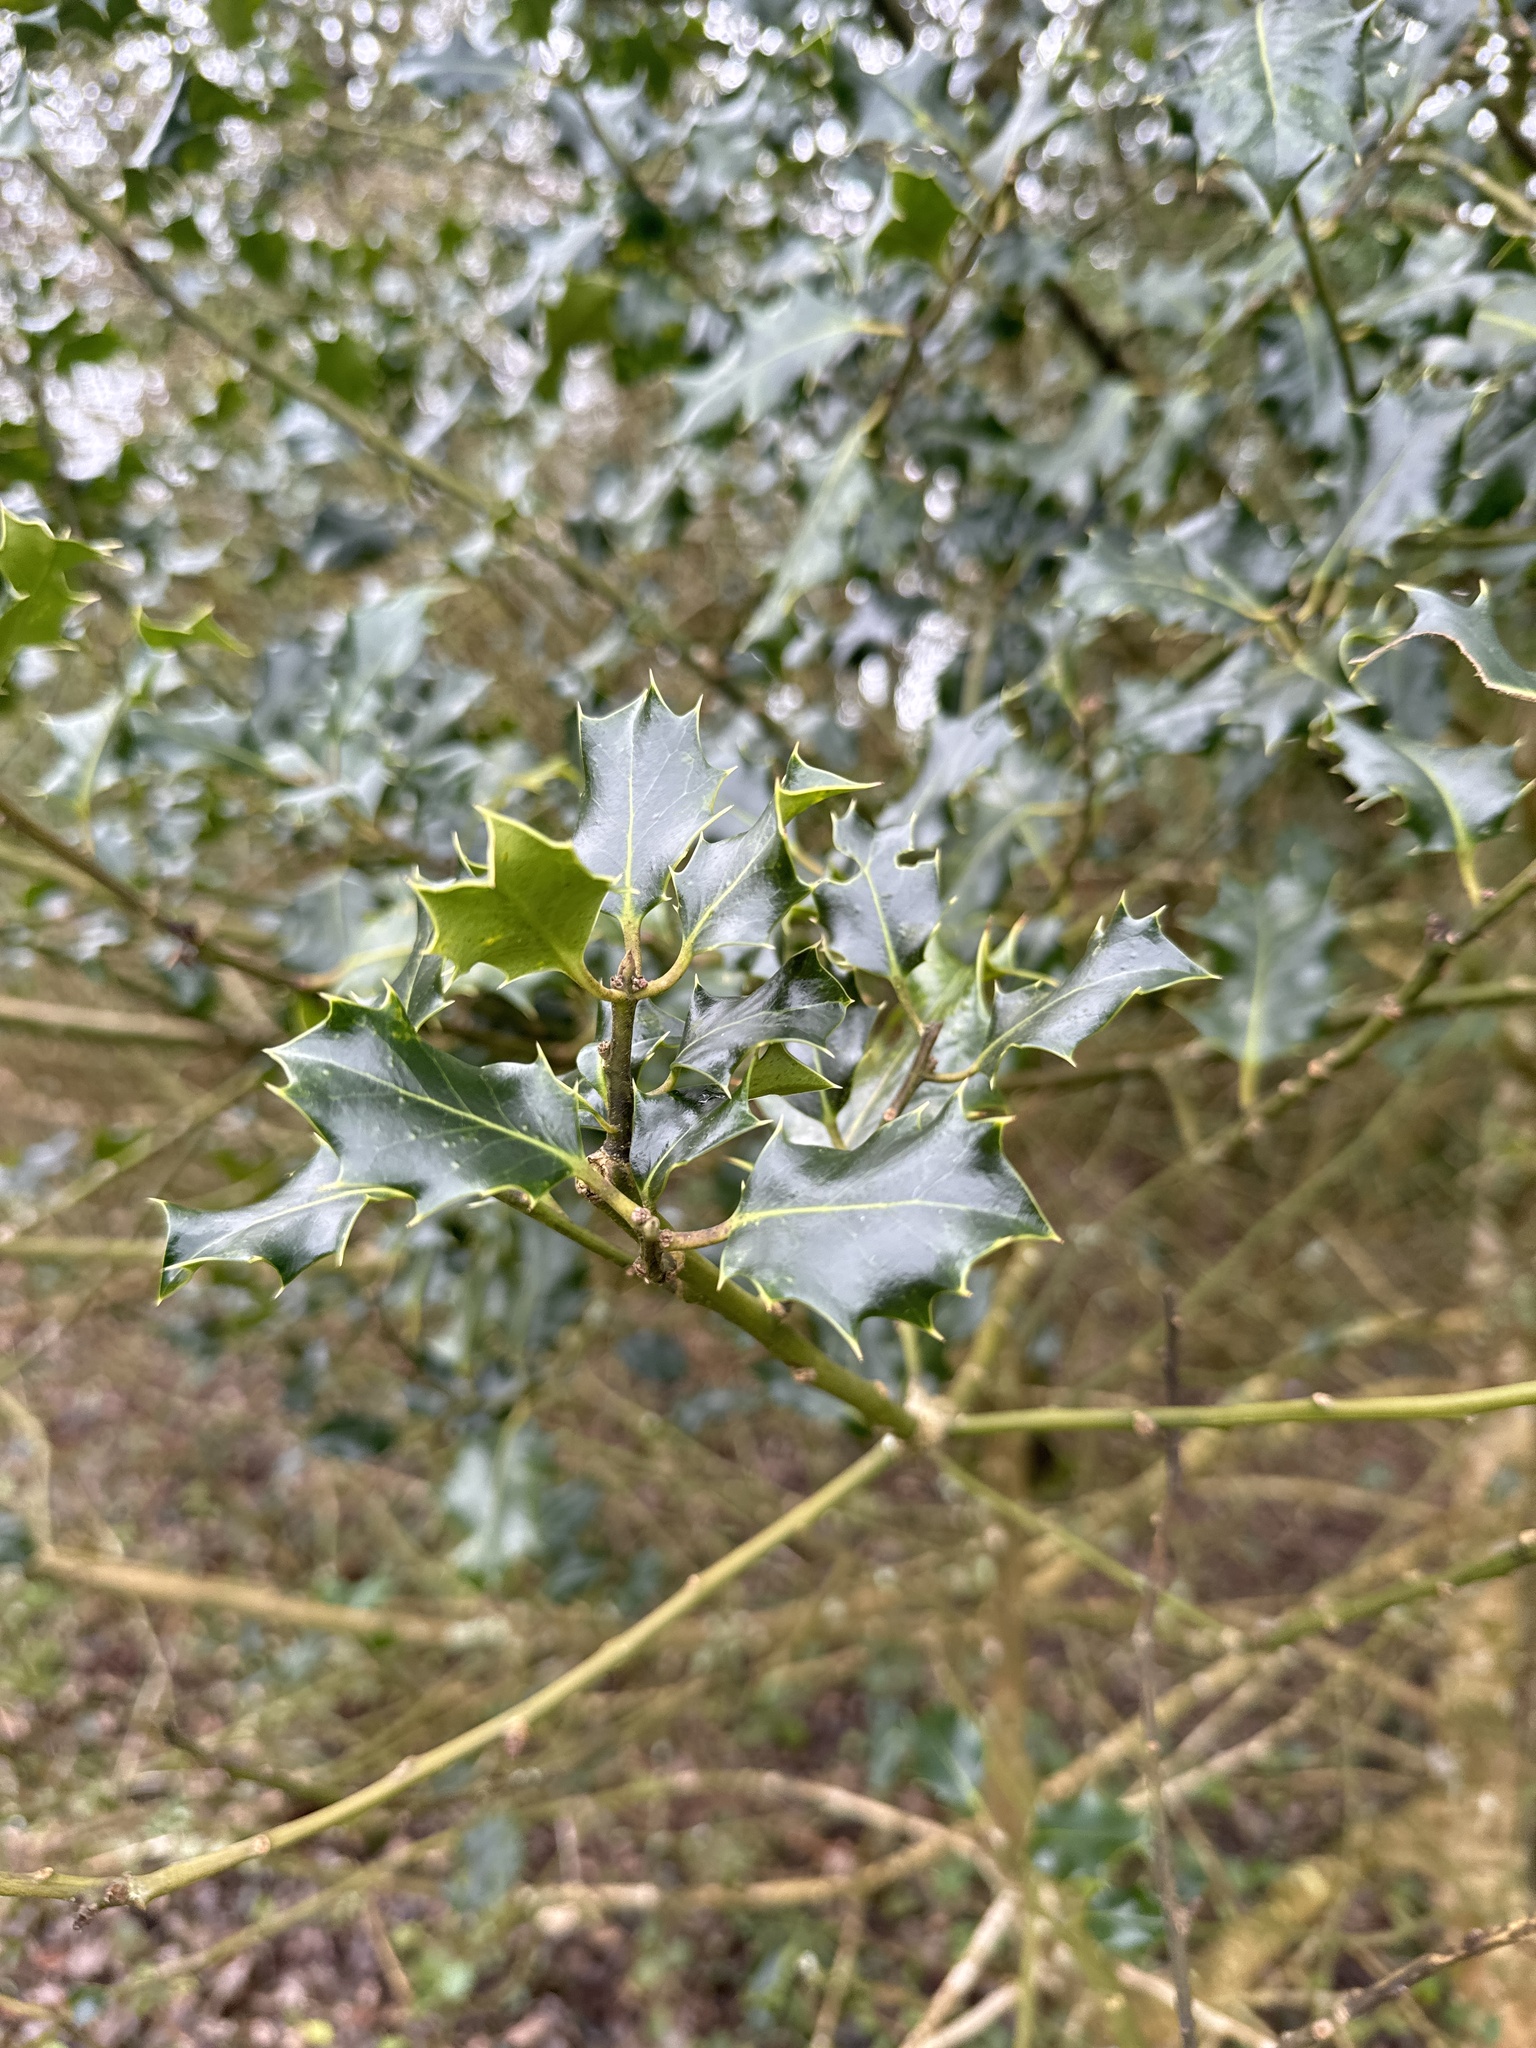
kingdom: Plantae
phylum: Tracheophyta
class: Magnoliopsida
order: Aquifoliales
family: Aquifoliaceae
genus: Ilex
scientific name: Ilex aquifolium
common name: English holly
